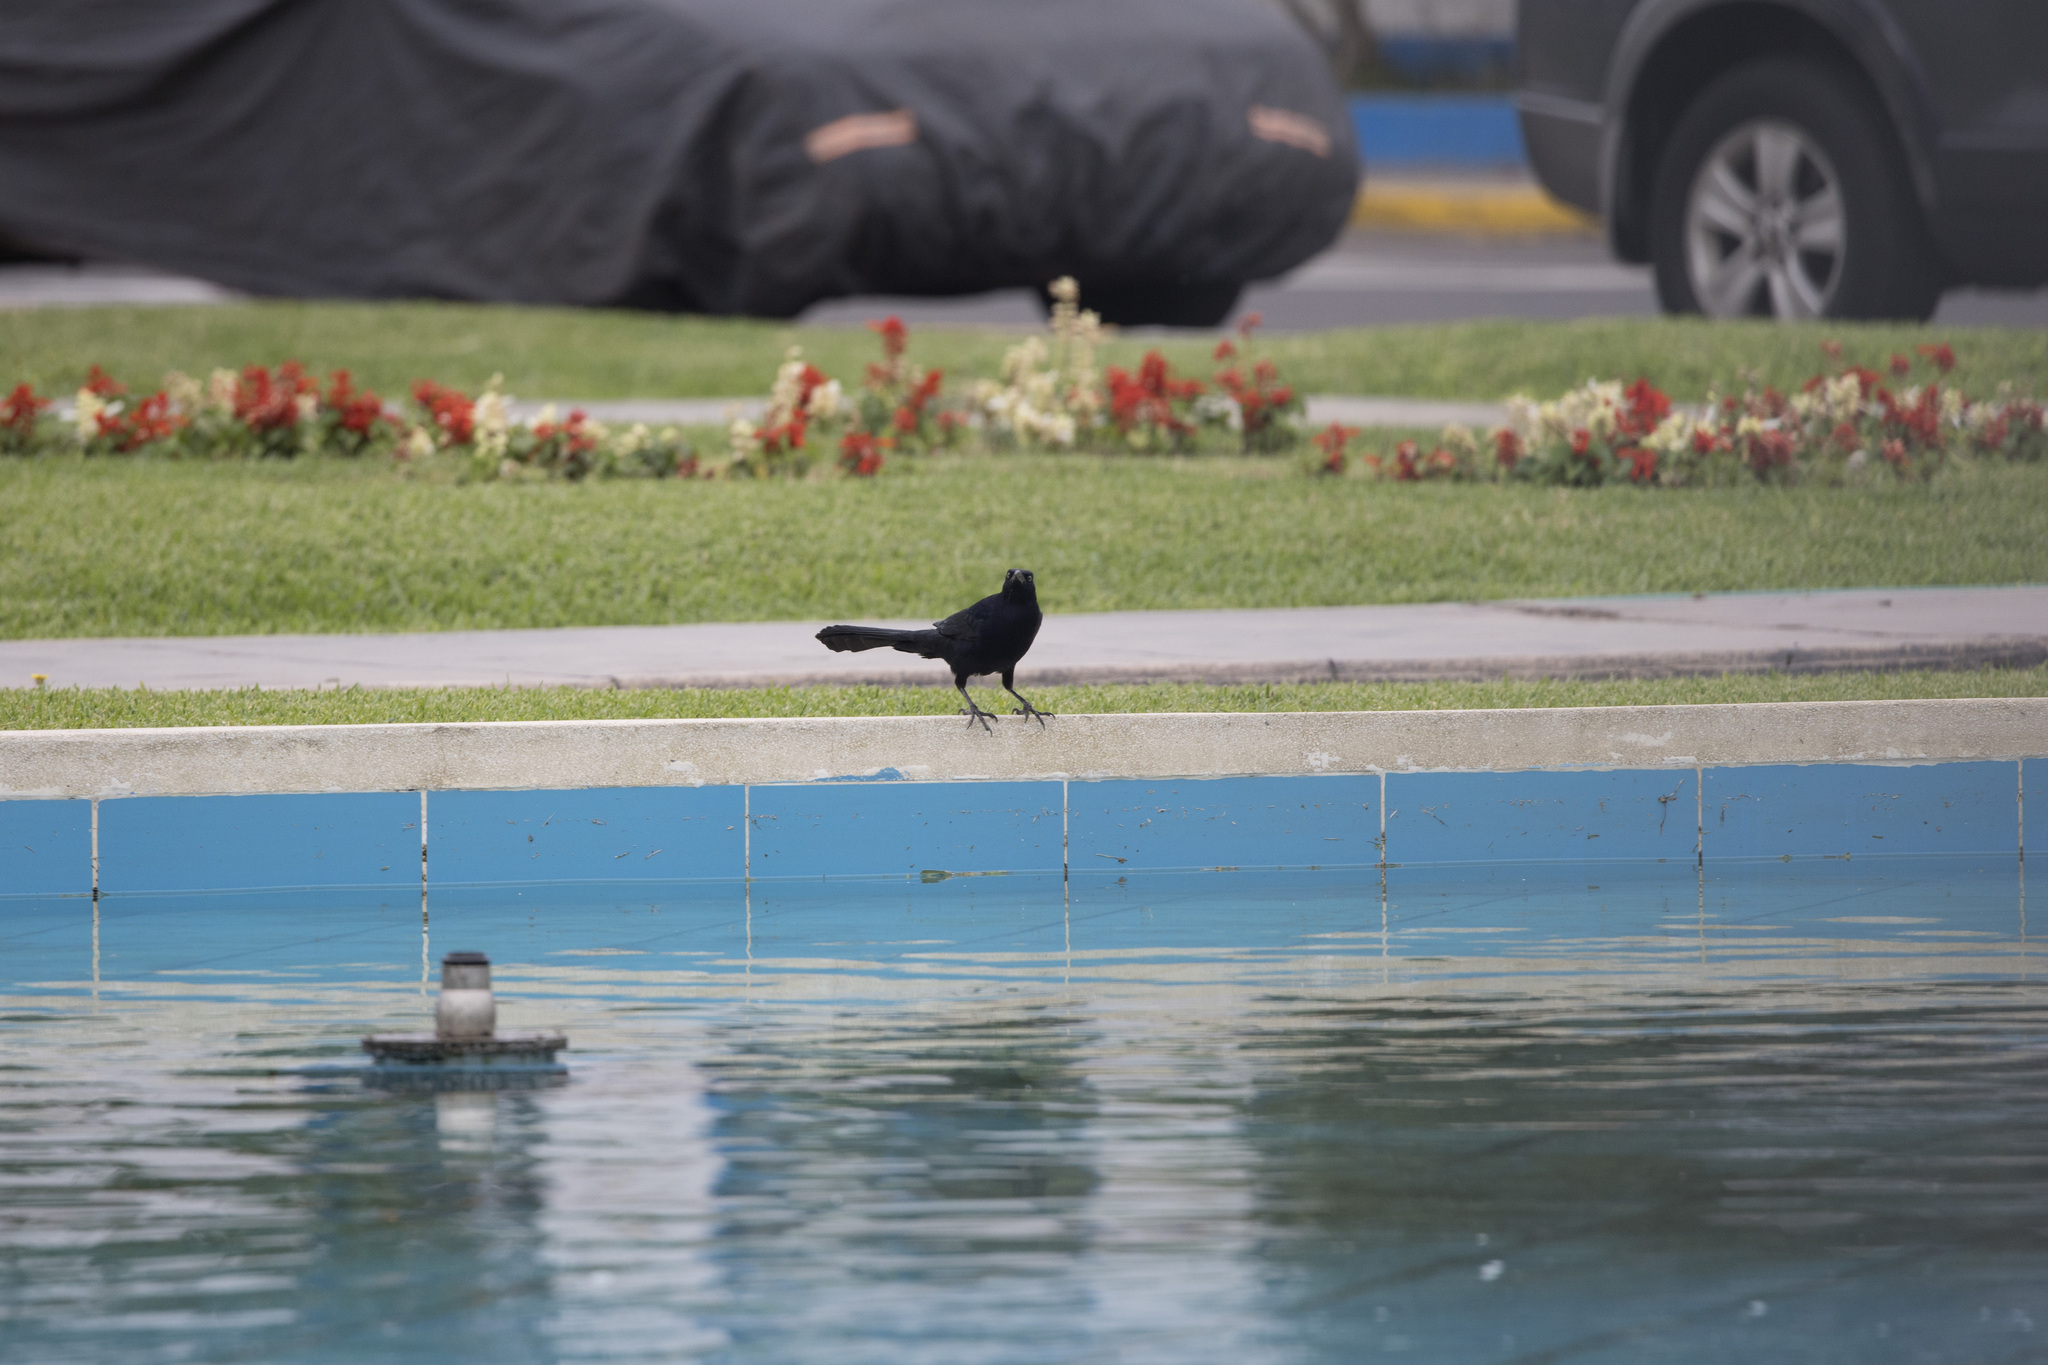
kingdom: Animalia
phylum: Chordata
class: Aves
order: Passeriformes
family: Icteridae
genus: Quiscalus
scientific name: Quiscalus mexicanus
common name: Great-tailed grackle
